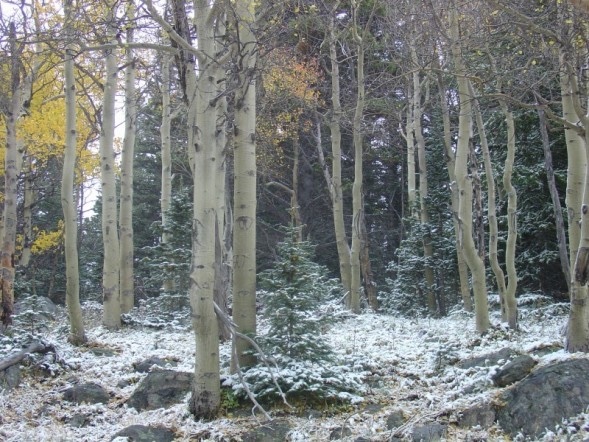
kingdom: Plantae
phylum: Tracheophyta
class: Magnoliopsida
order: Malpighiales
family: Salicaceae
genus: Populus
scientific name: Populus tremuloides
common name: Quaking aspen
